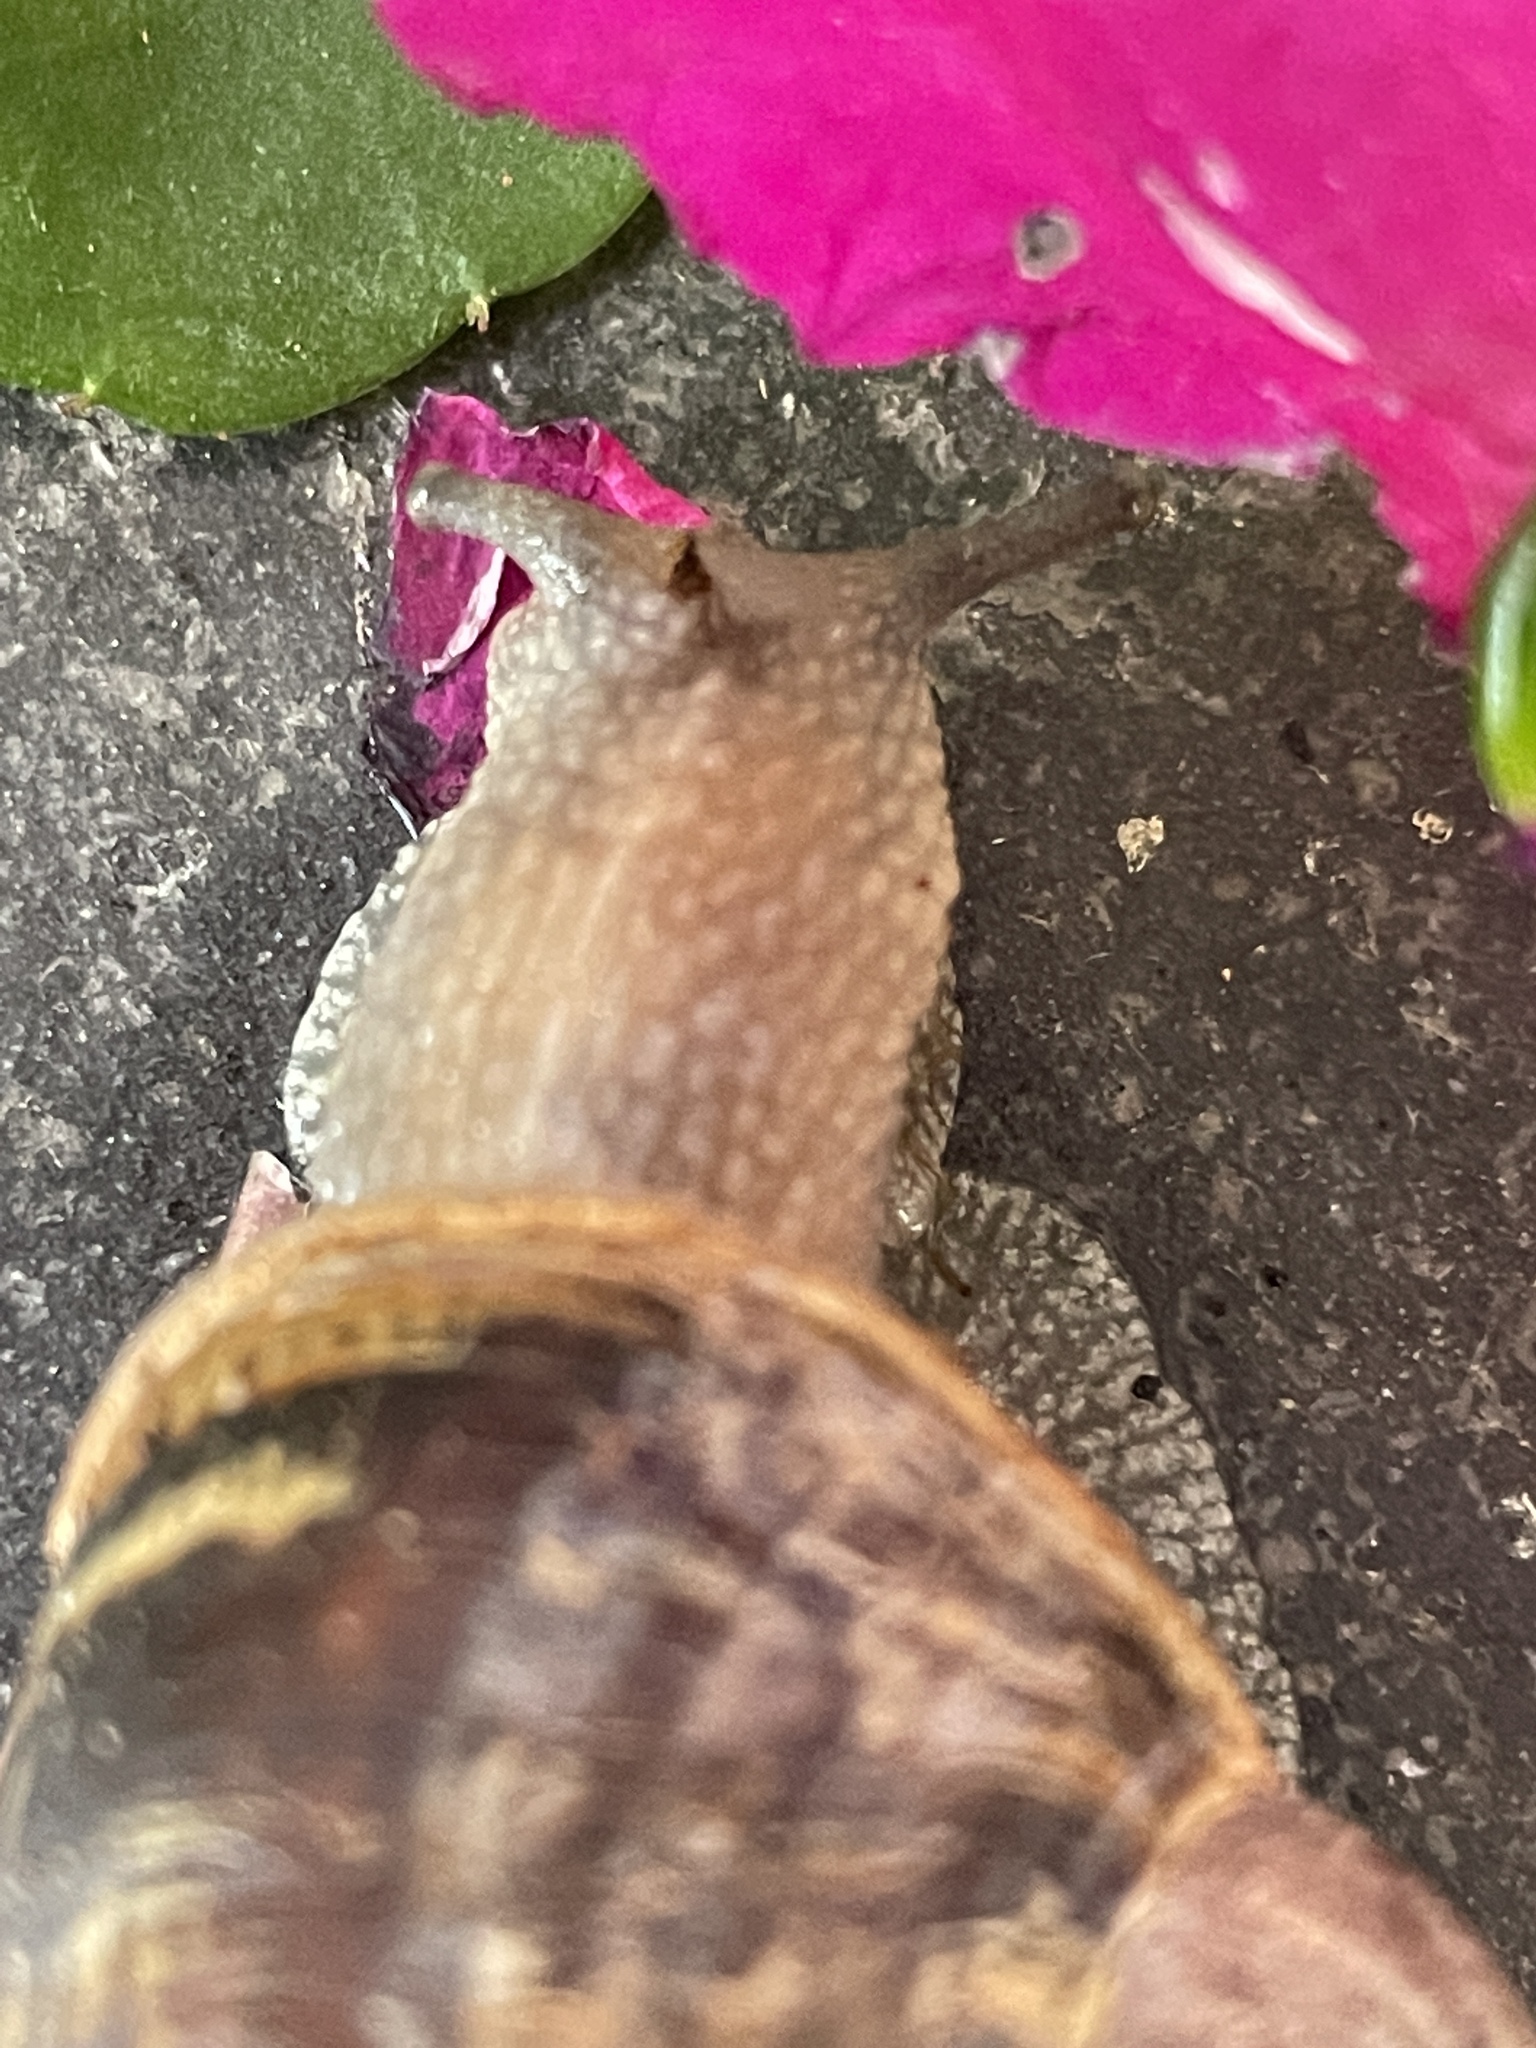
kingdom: Animalia
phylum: Mollusca
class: Gastropoda
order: Stylommatophora
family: Helicidae
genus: Cornu
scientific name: Cornu aspersum
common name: Brown garden snail
